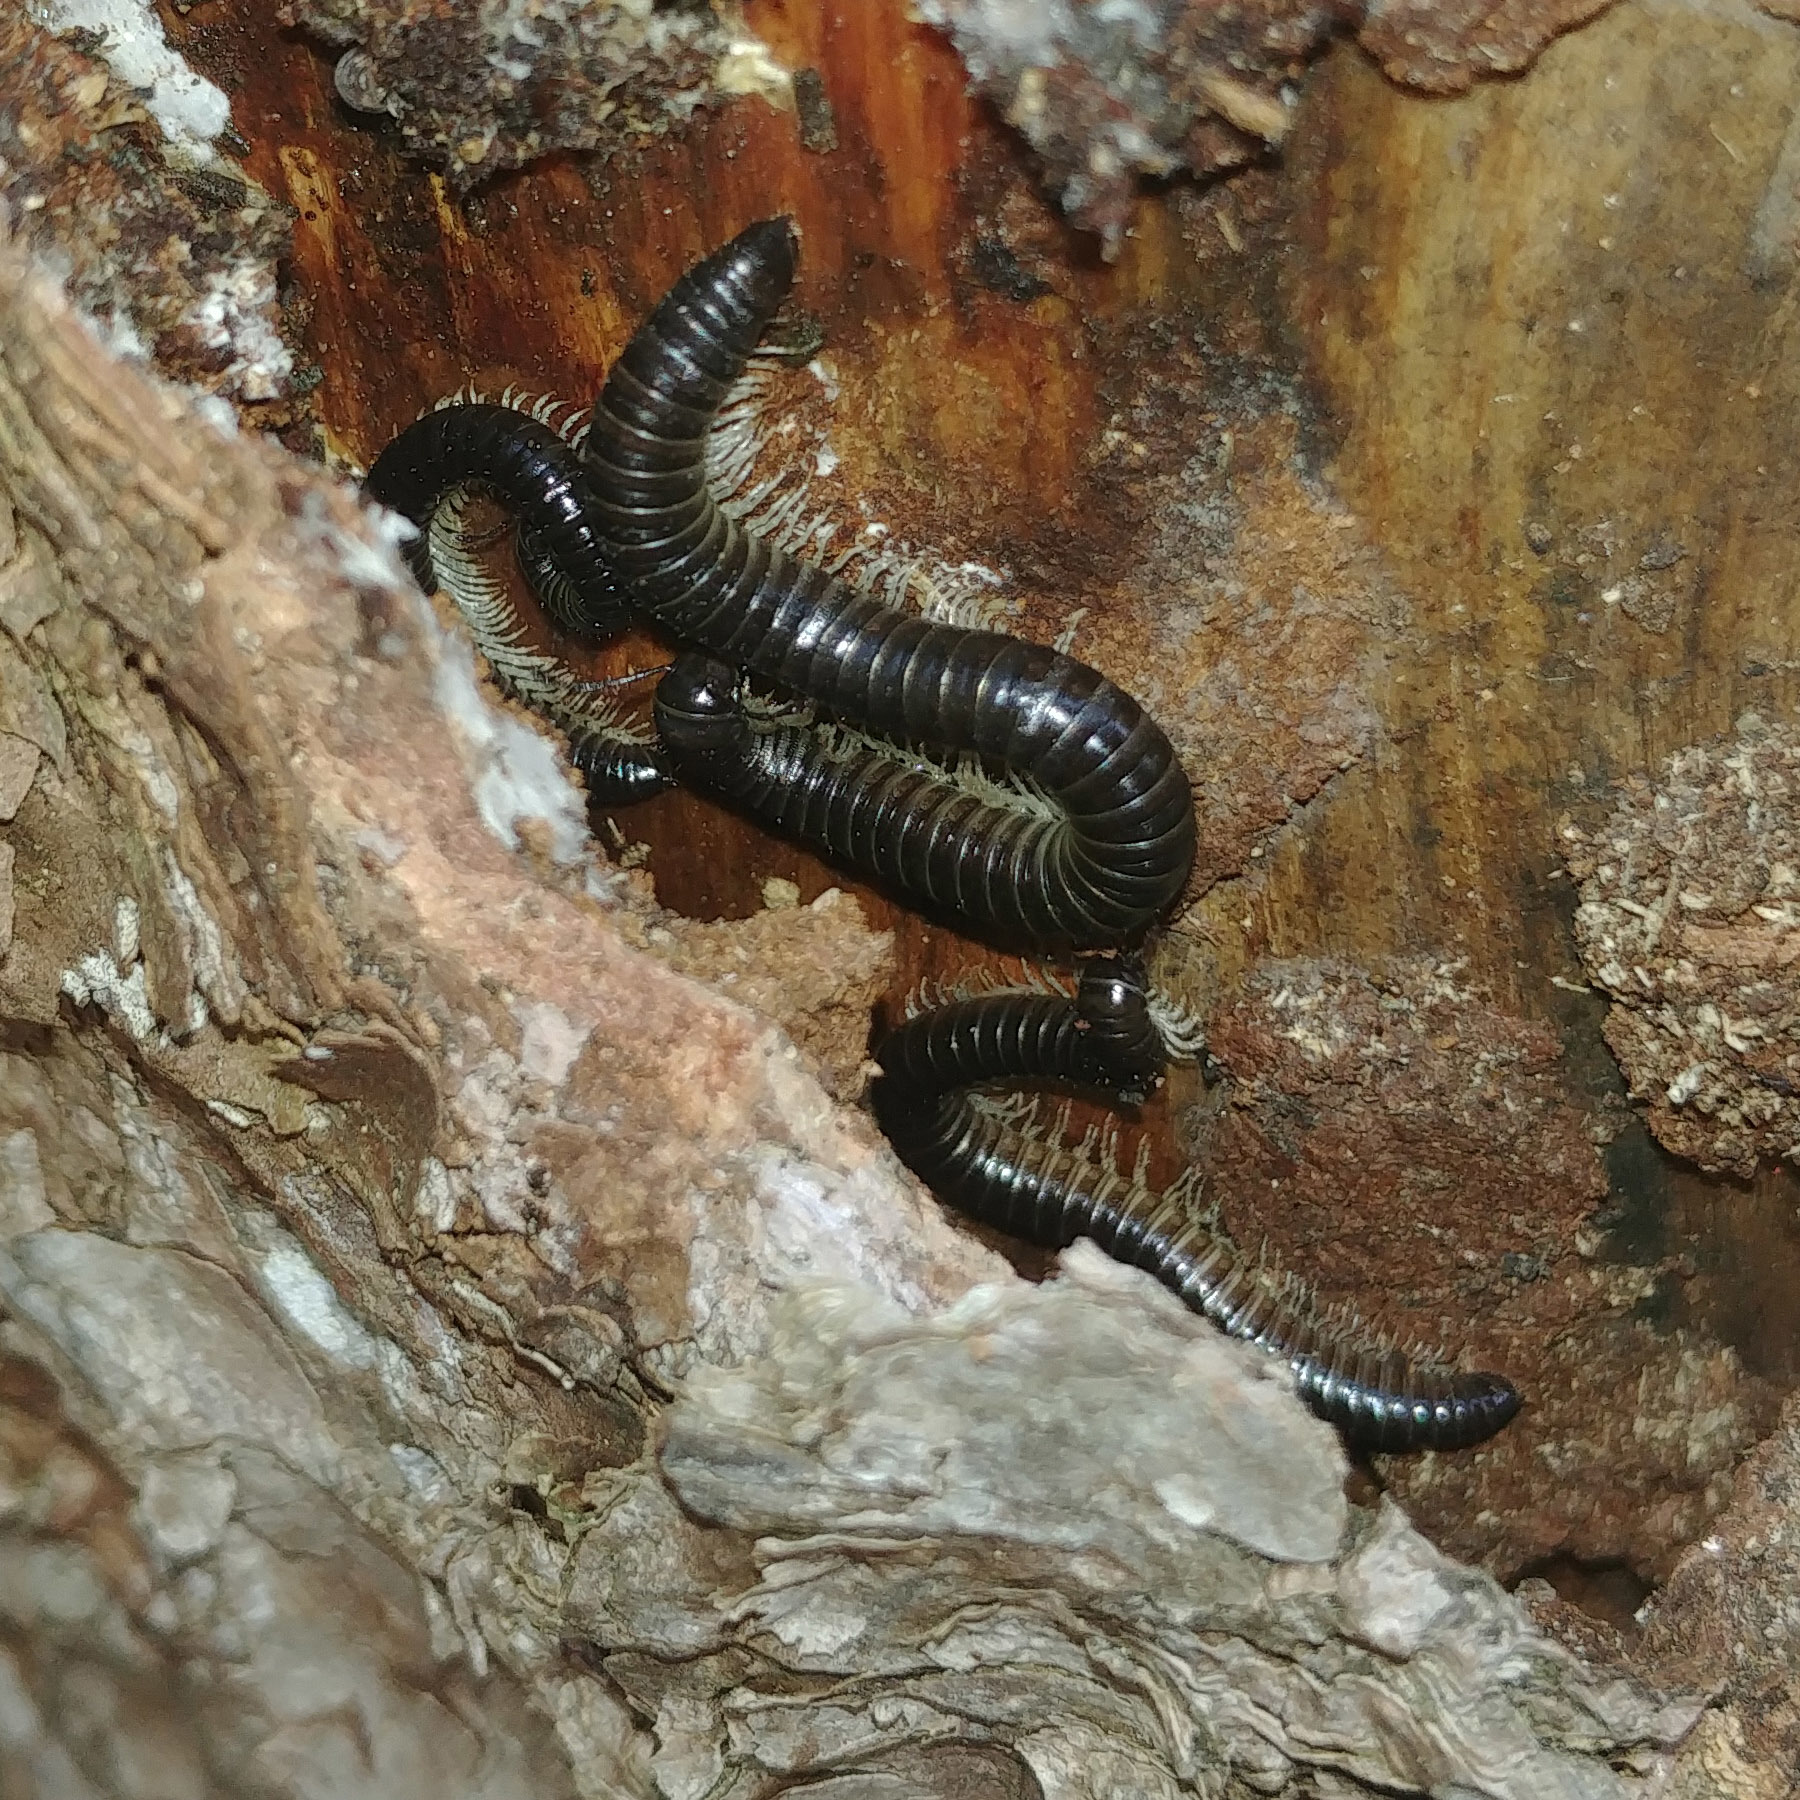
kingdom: Animalia
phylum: Arthropoda
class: Diplopoda
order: Julida
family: Julidae
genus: Tachypodoiulus
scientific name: Tachypodoiulus niger
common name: White-legged snake millipede
